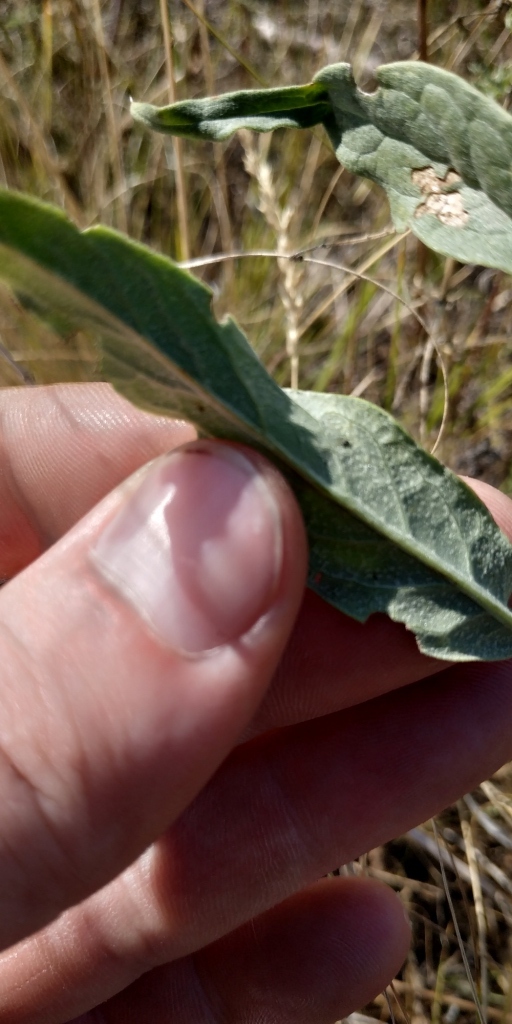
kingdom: Plantae
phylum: Tracheophyta
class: Magnoliopsida
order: Asterales
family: Asteraceae
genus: Saussurea
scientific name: Saussurea amara
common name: Alberta sawwort
